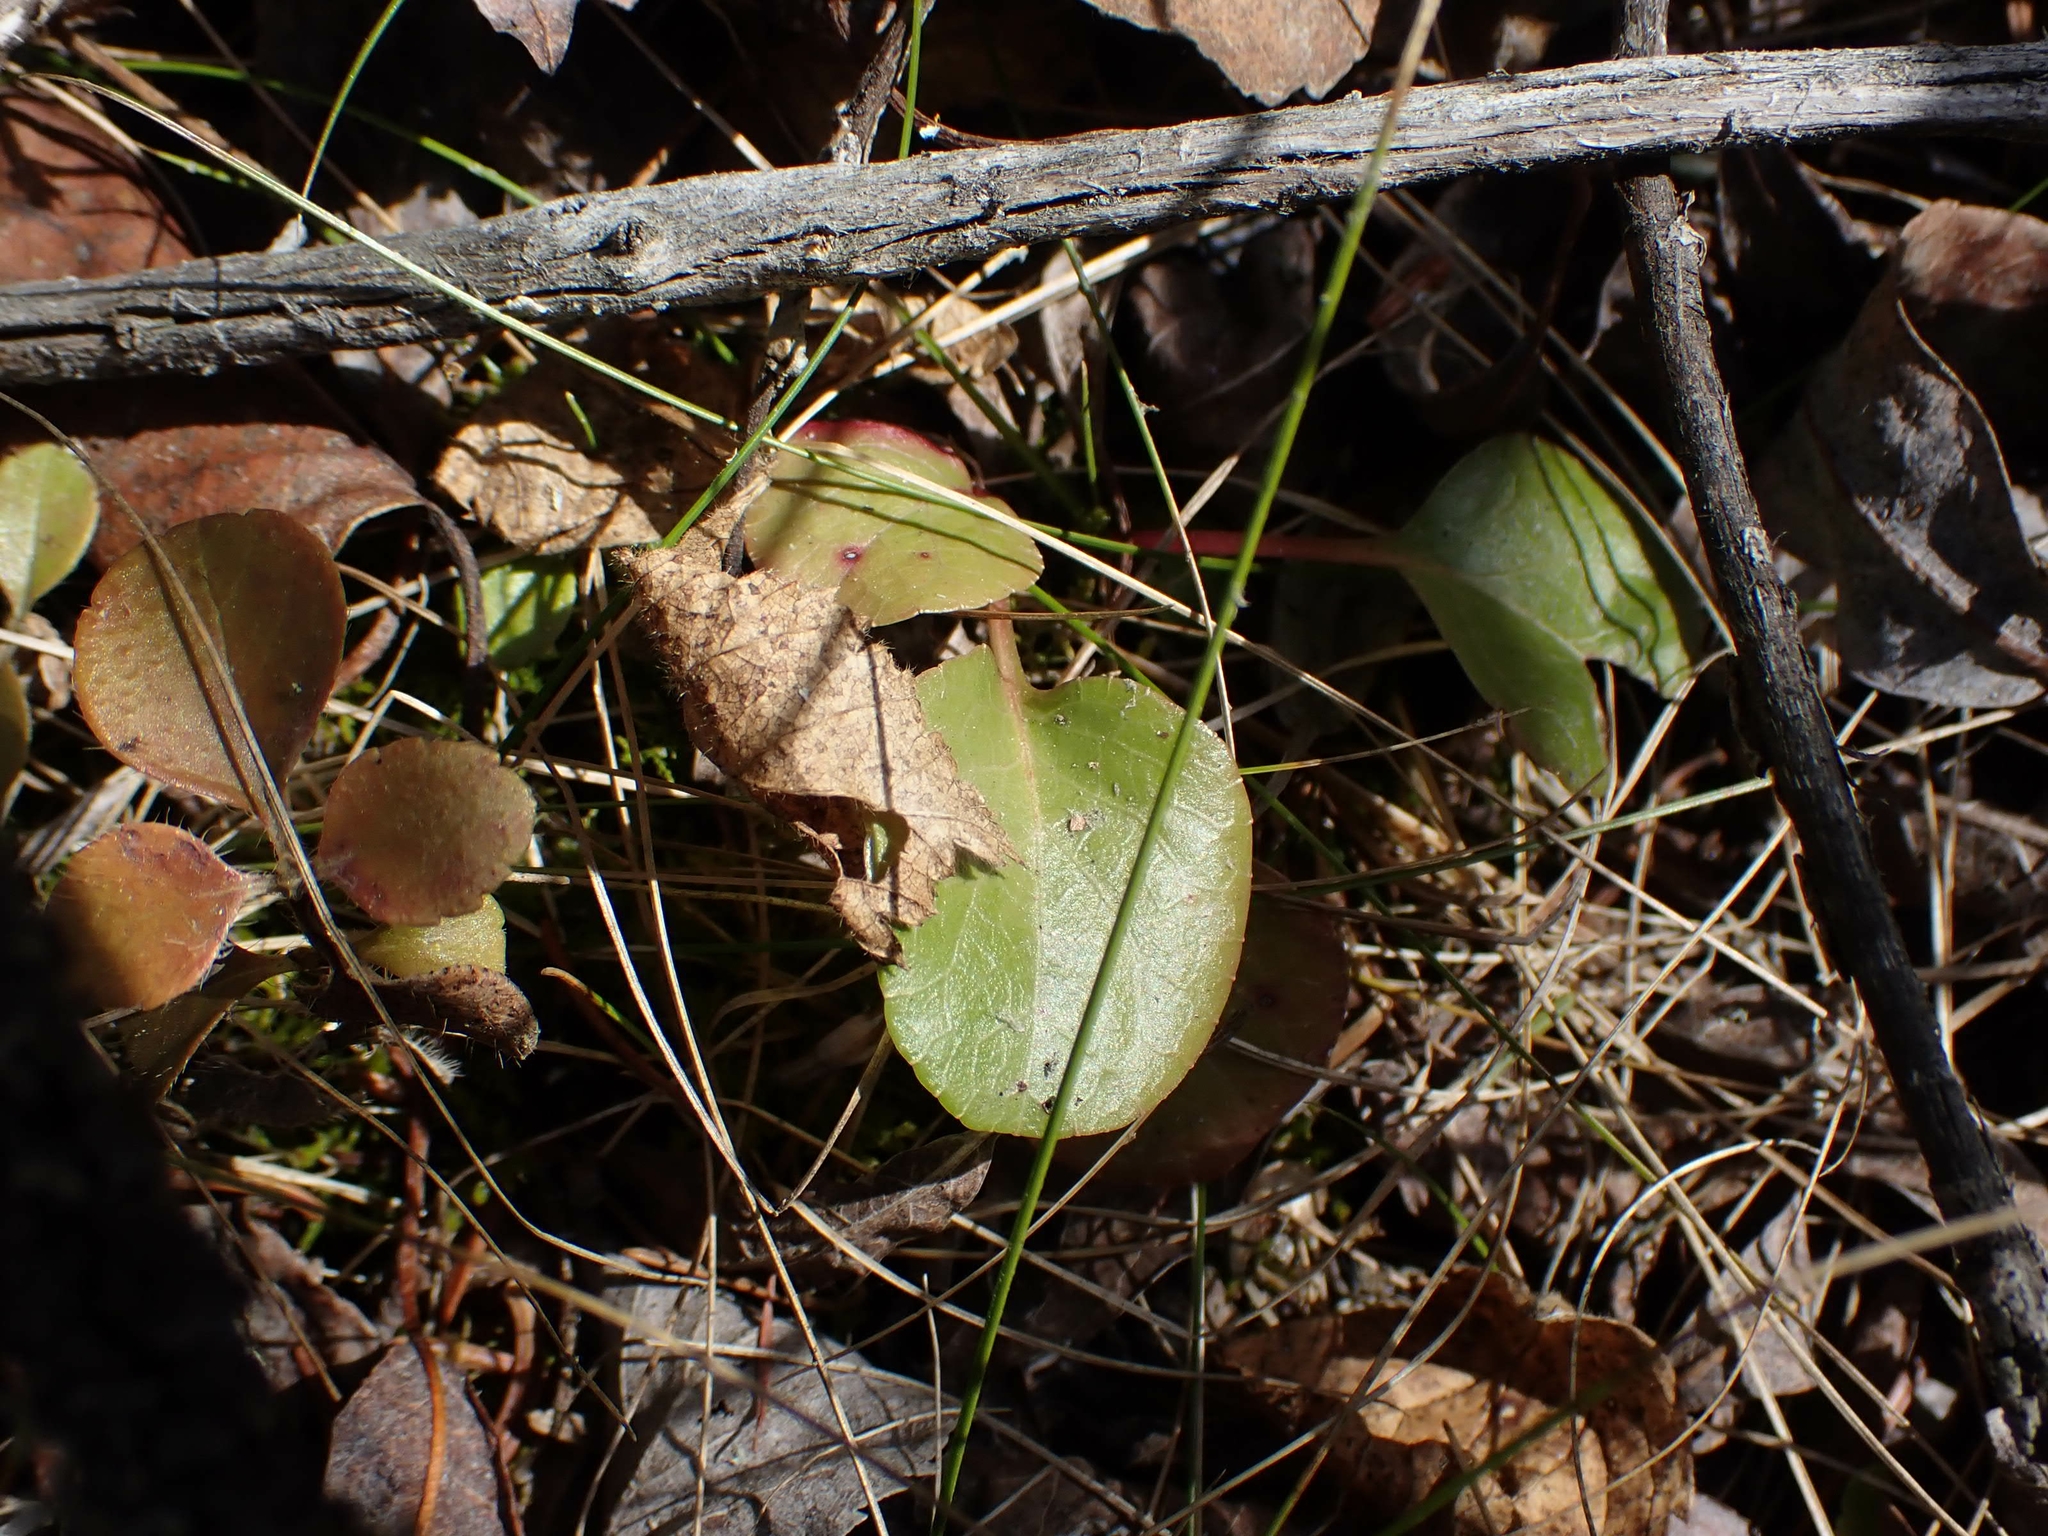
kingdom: Plantae
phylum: Tracheophyta
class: Magnoliopsida
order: Ericales
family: Ericaceae
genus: Pyrola
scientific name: Pyrola asarifolia
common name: Bog wintergreen
